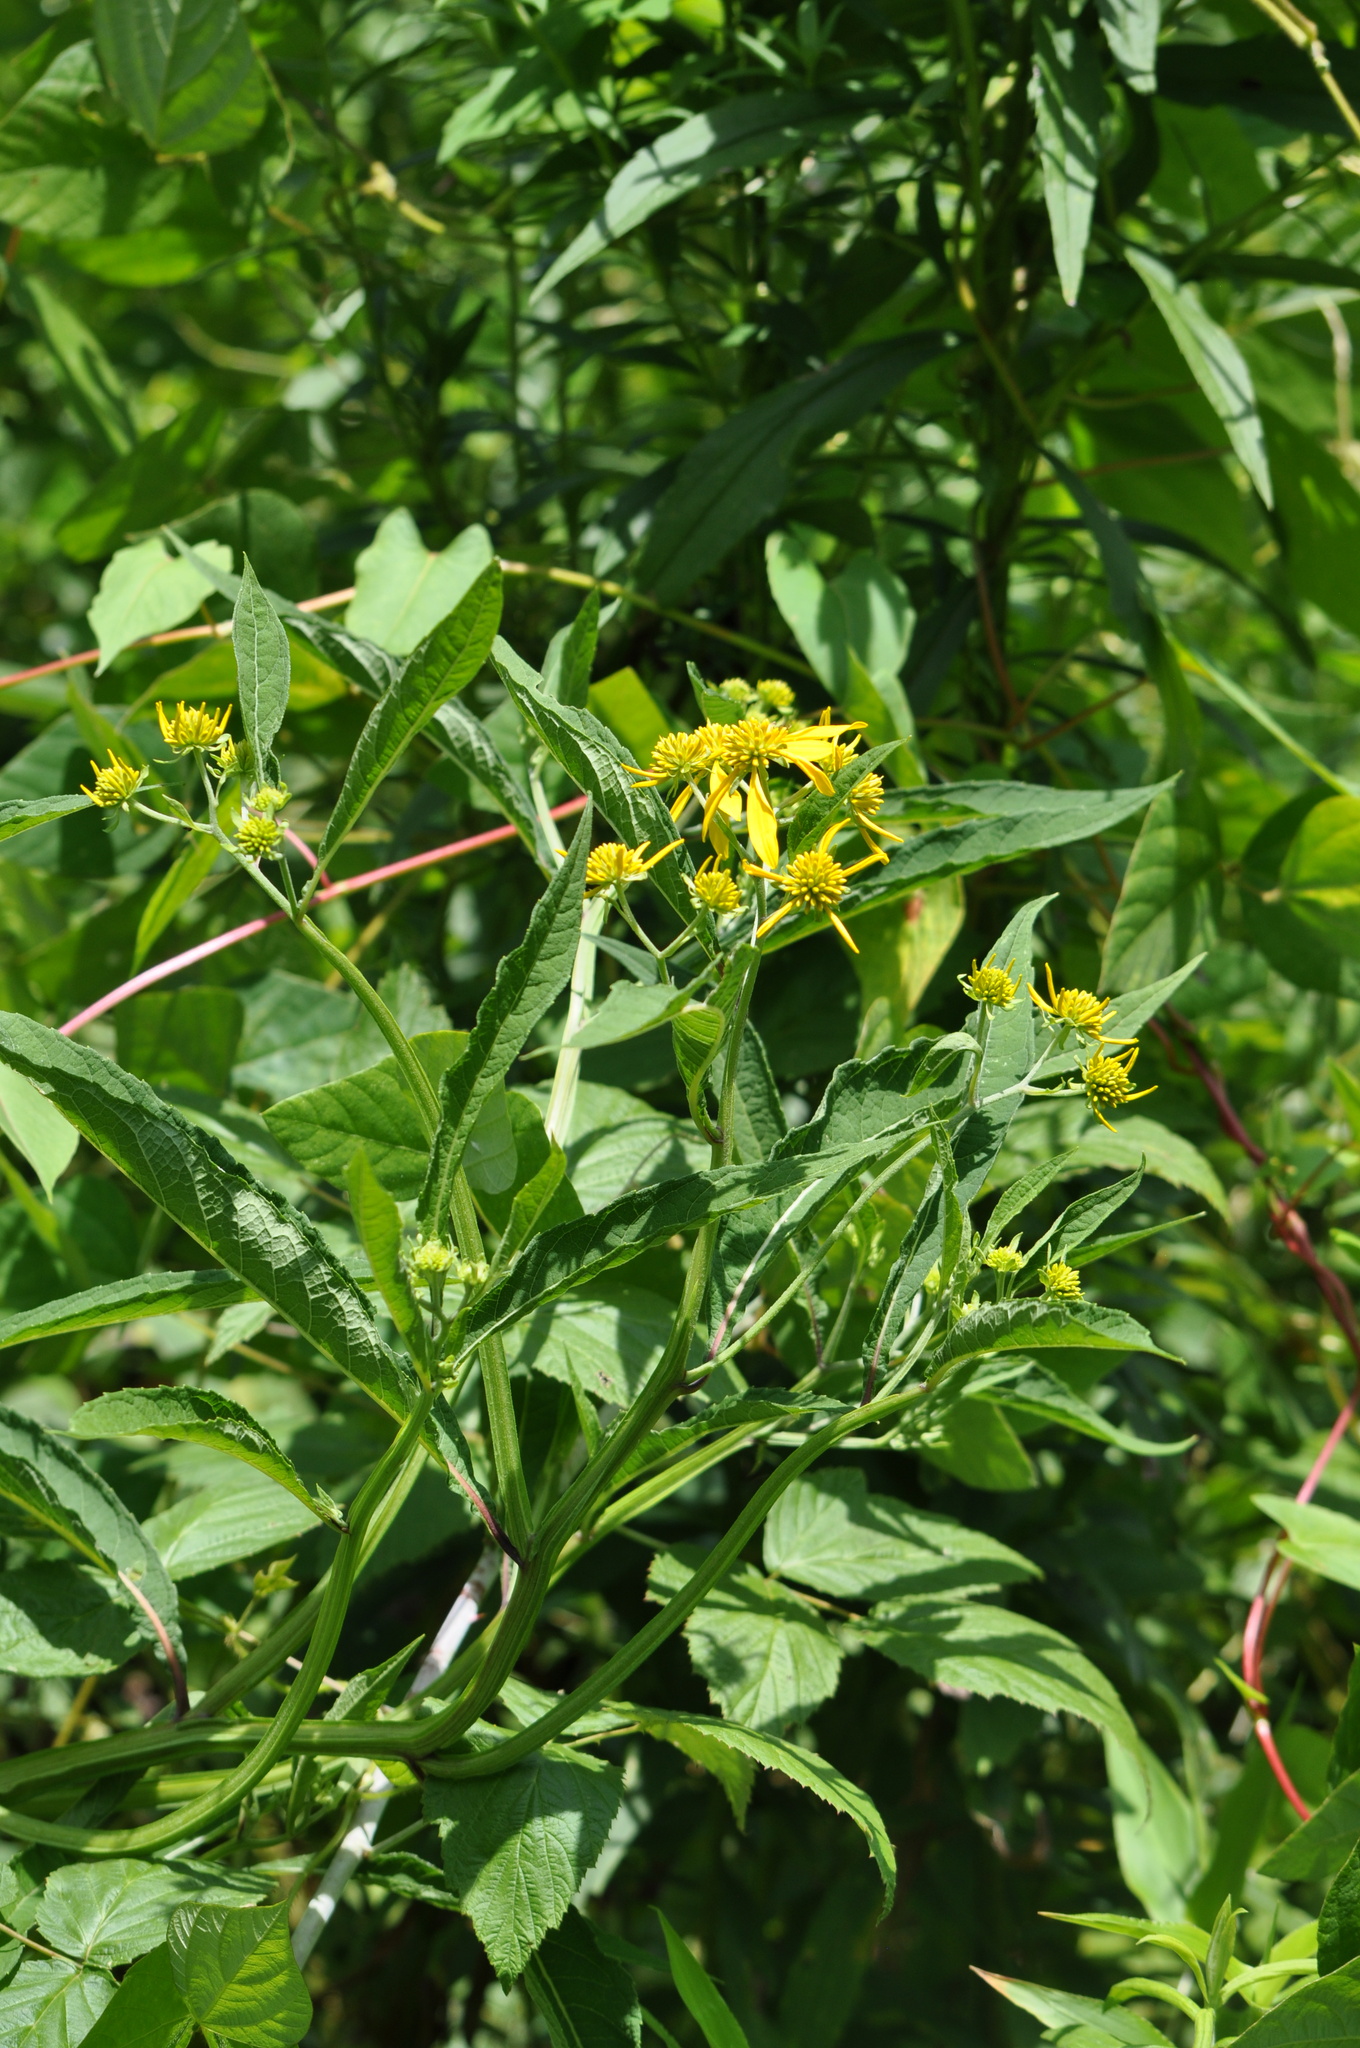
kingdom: Plantae
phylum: Tracheophyta
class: Magnoliopsida
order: Asterales
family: Asteraceae
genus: Verbesina
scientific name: Verbesina alternifolia
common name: Wingstem
